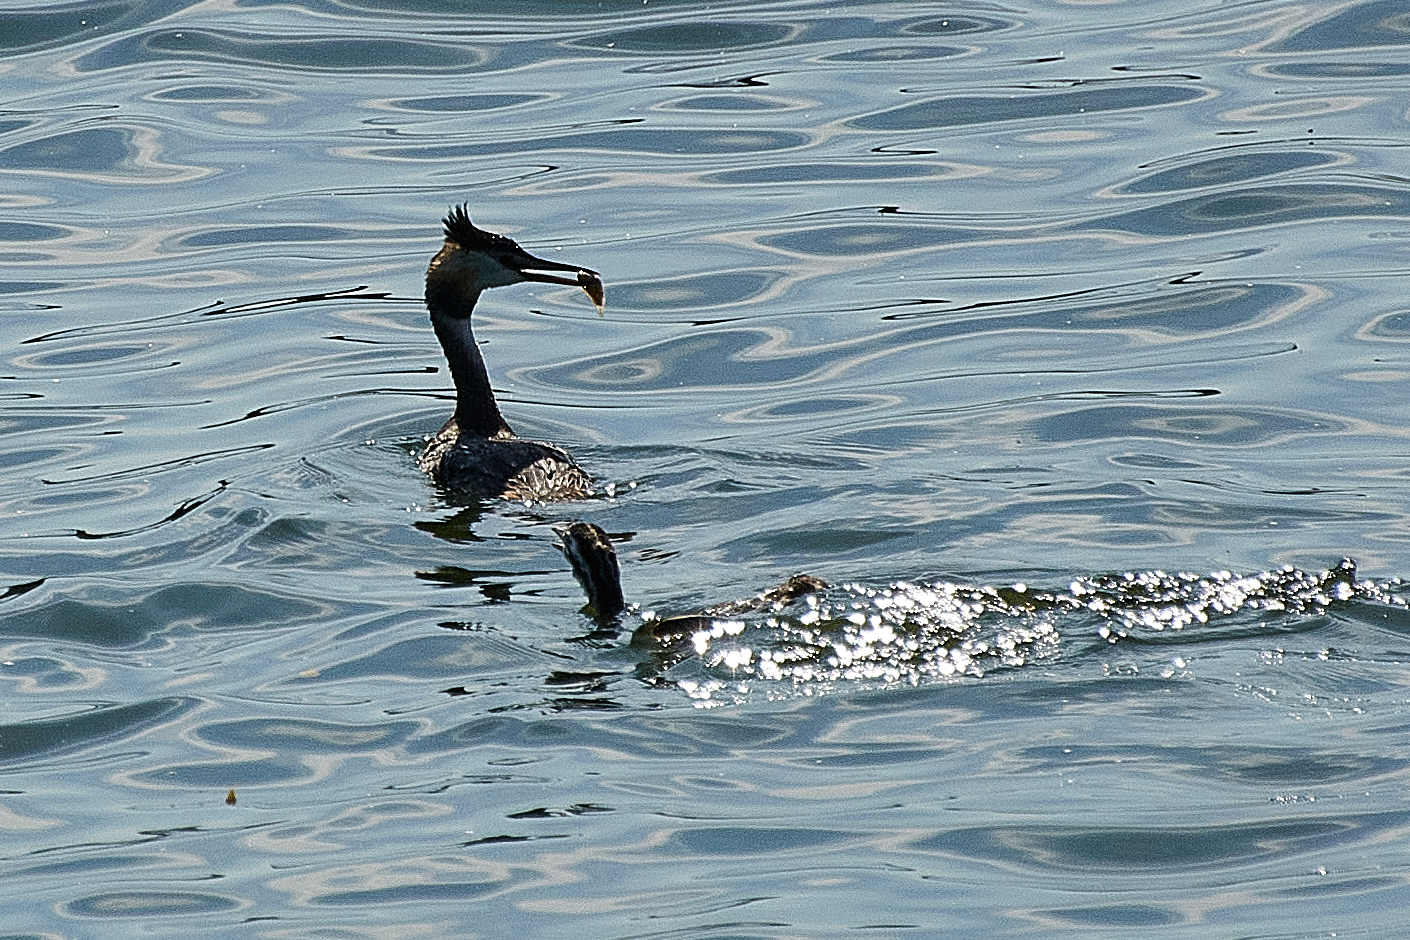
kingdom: Animalia
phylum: Chordata
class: Aves
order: Podicipediformes
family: Podicipedidae
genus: Podiceps
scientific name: Podiceps cristatus
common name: Great crested grebe
